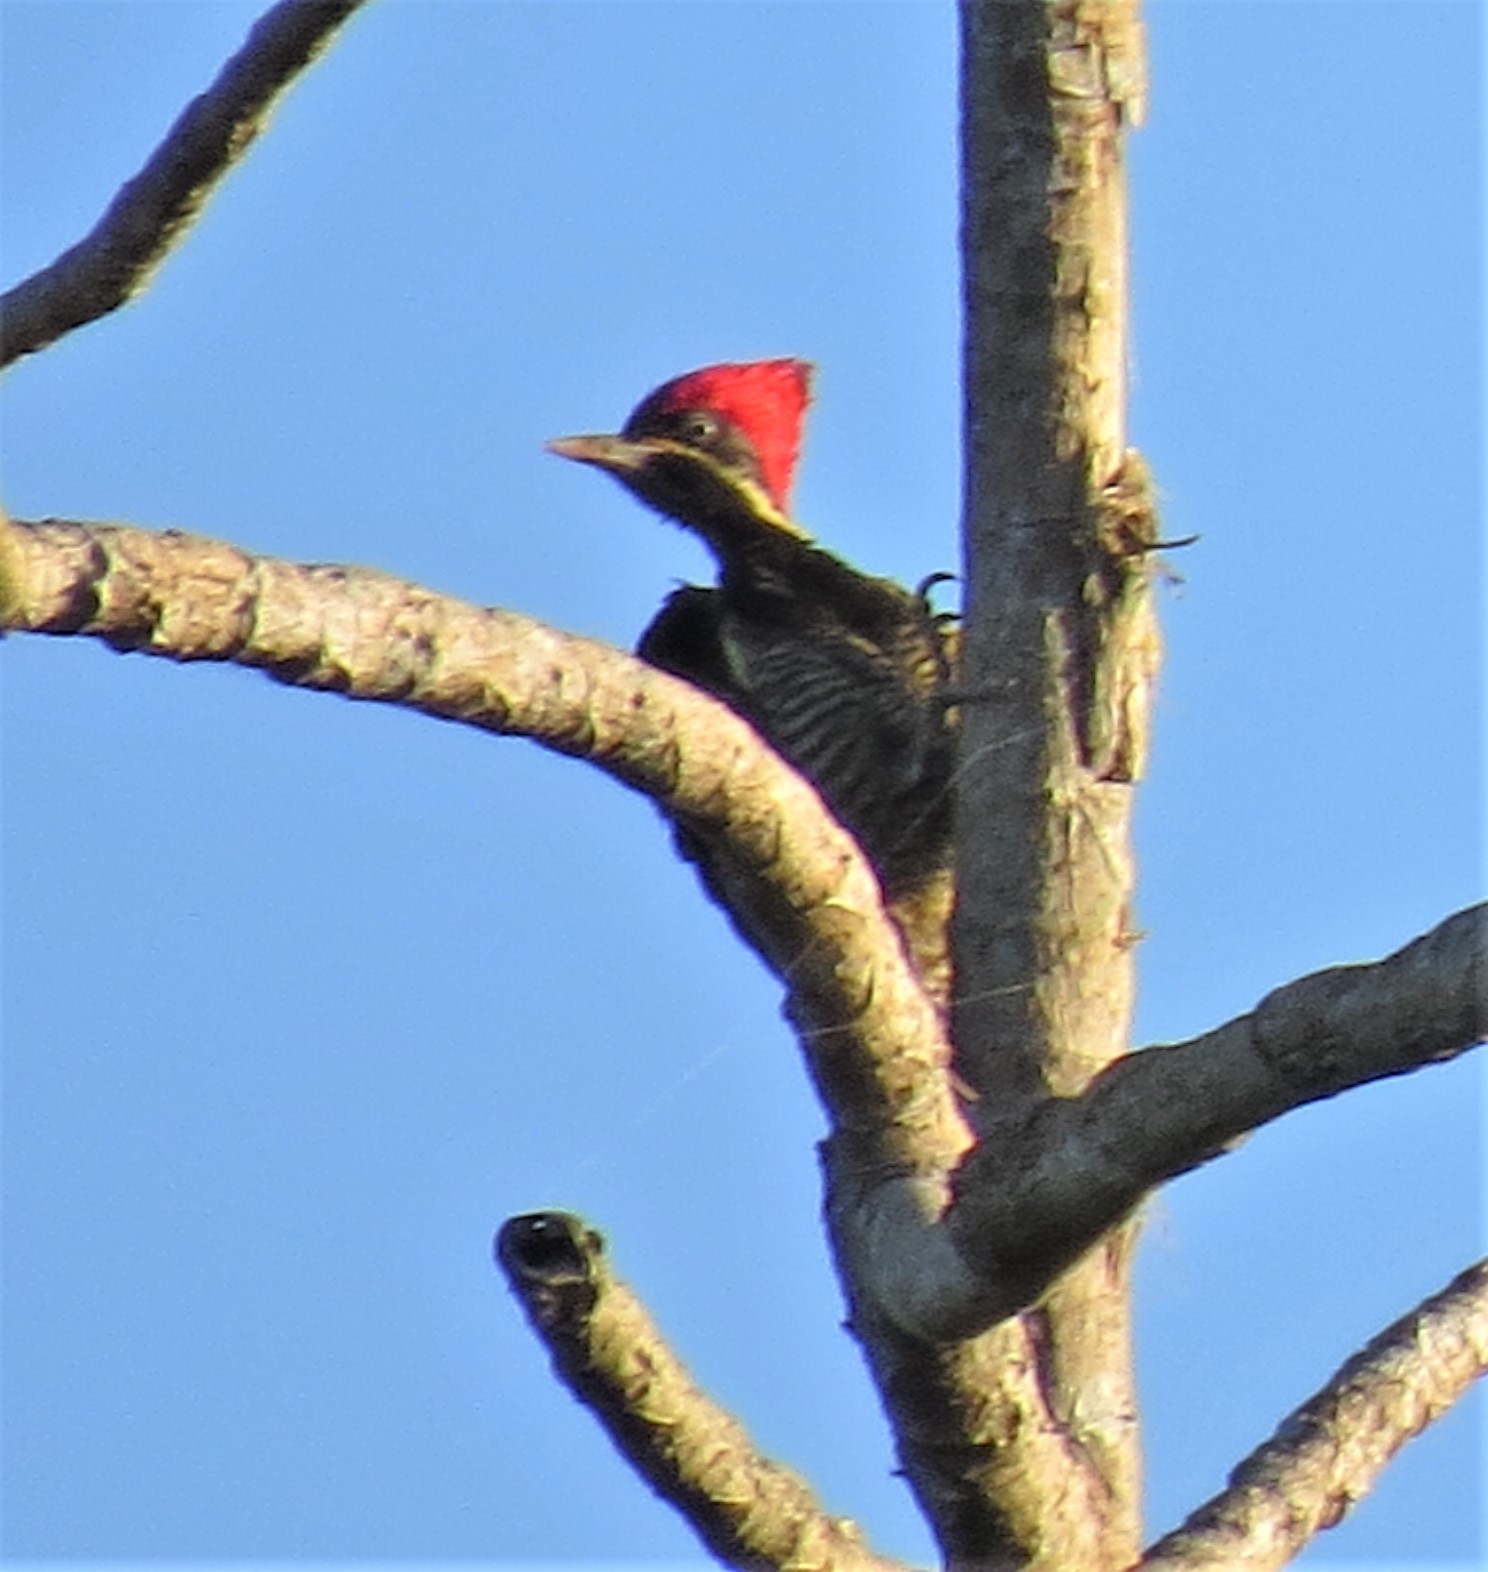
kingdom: Animalia
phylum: Chordata
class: Aves
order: Piciformes
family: Picidae
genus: Dryocopus
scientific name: Dryocopus lineatus
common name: Lineated woodpecker
